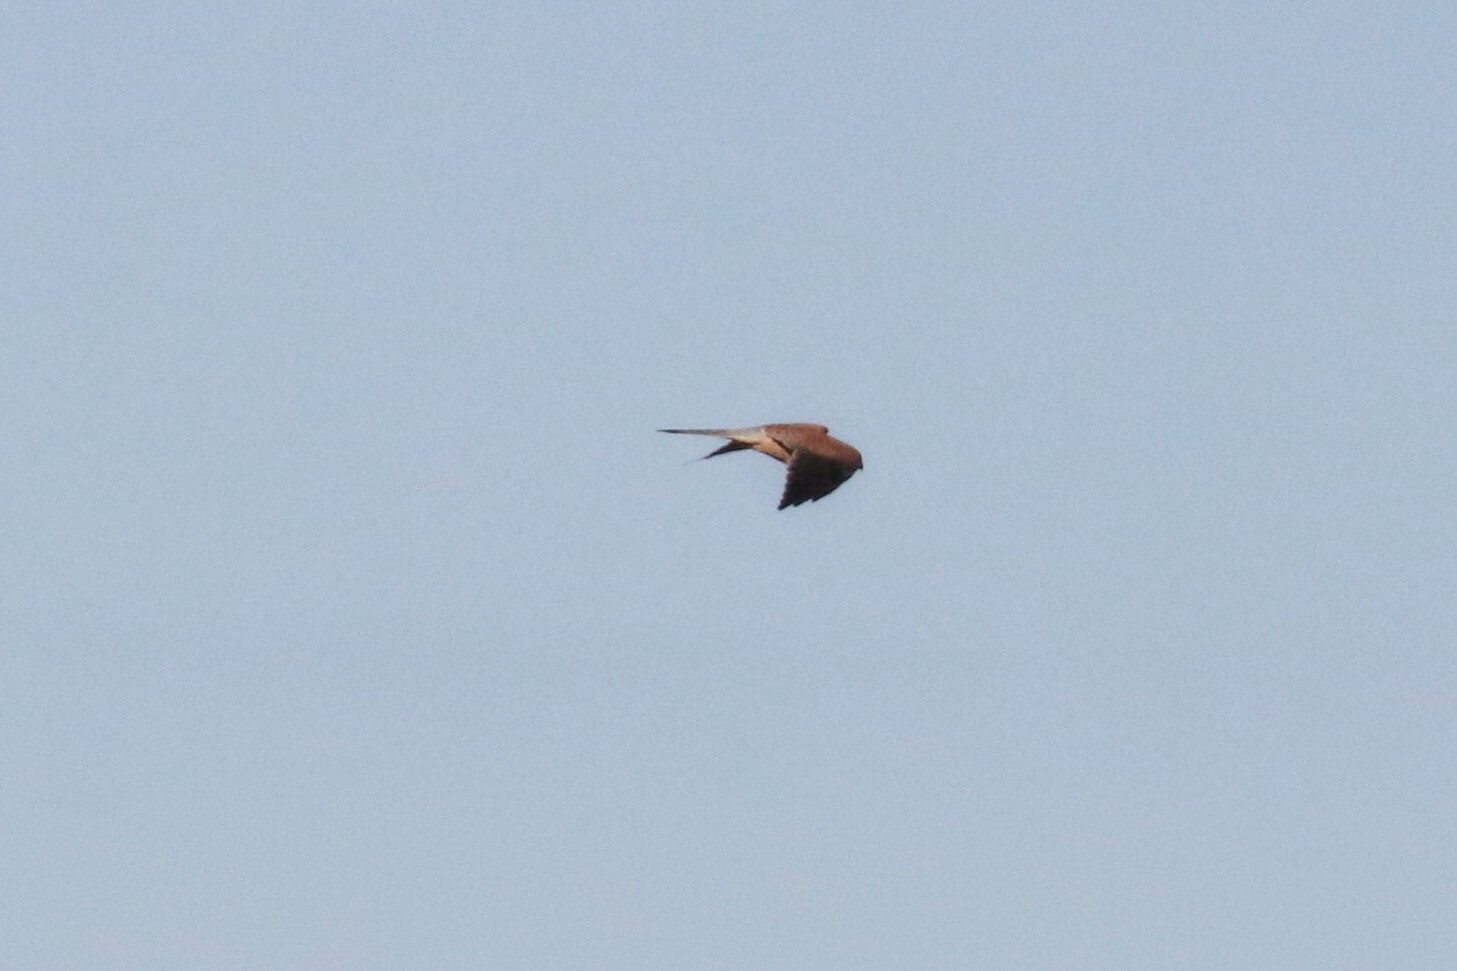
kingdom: Animalia
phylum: Chordata
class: Aves
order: Falconiformes
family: Falconidae
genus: Falco
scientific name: Falco tinnunculus
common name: Common kestrel
